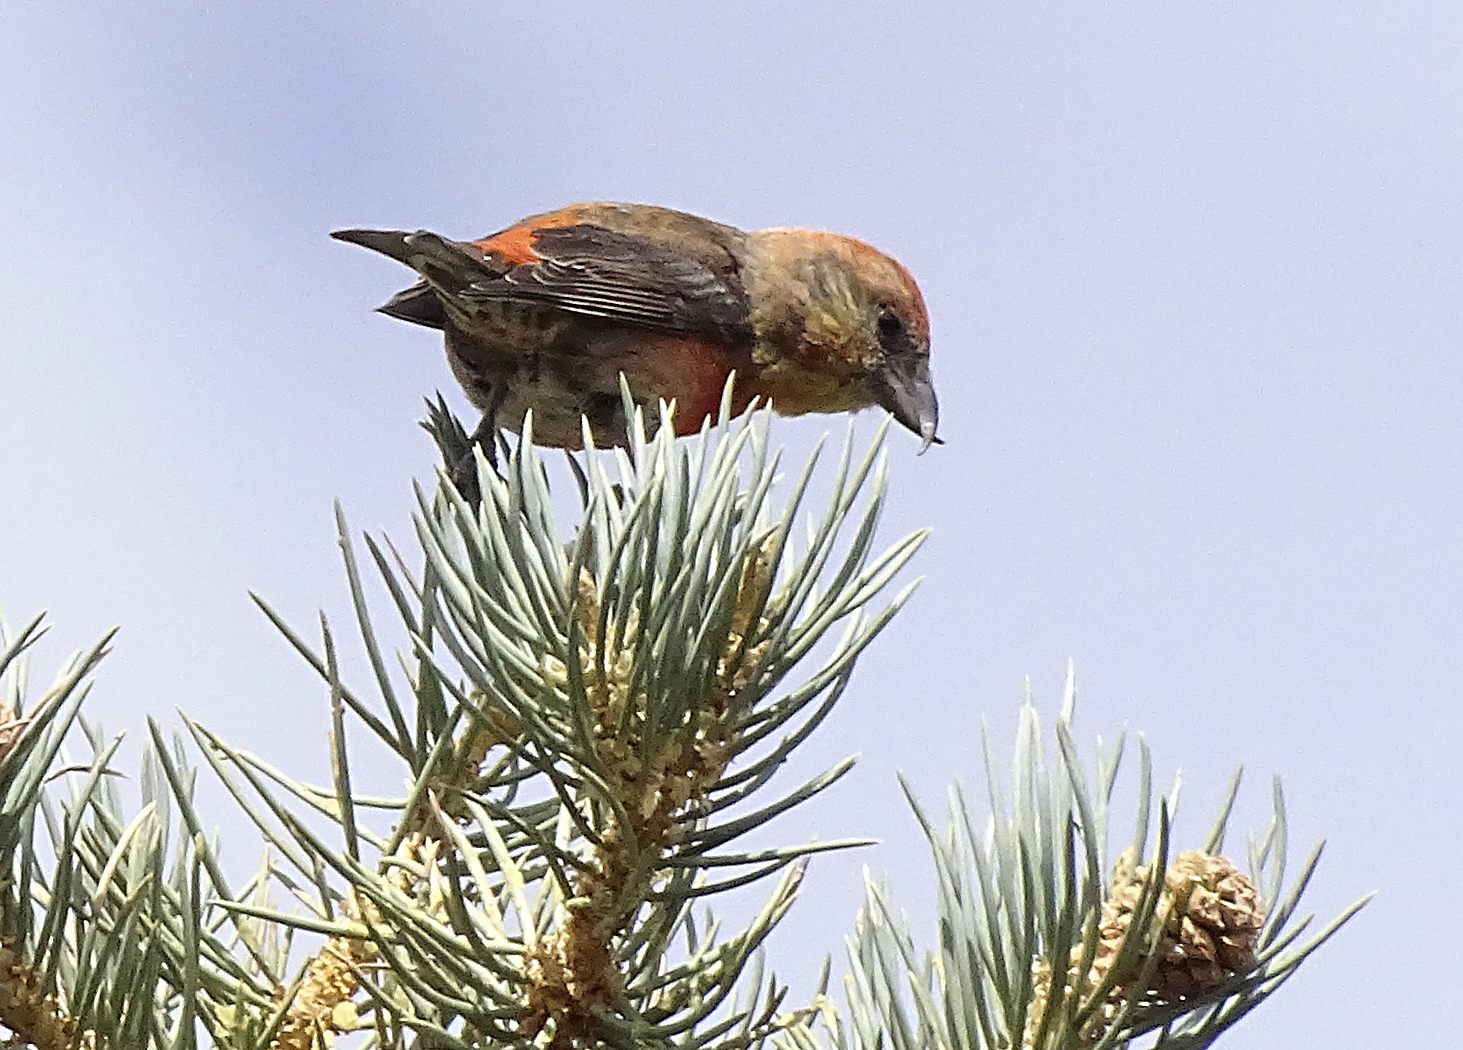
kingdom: Animalia
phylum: Chordata
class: Aves
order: Passeriformes
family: Fringillidae
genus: Loxia
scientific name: Loxia curvirostra
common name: Red crossbill
